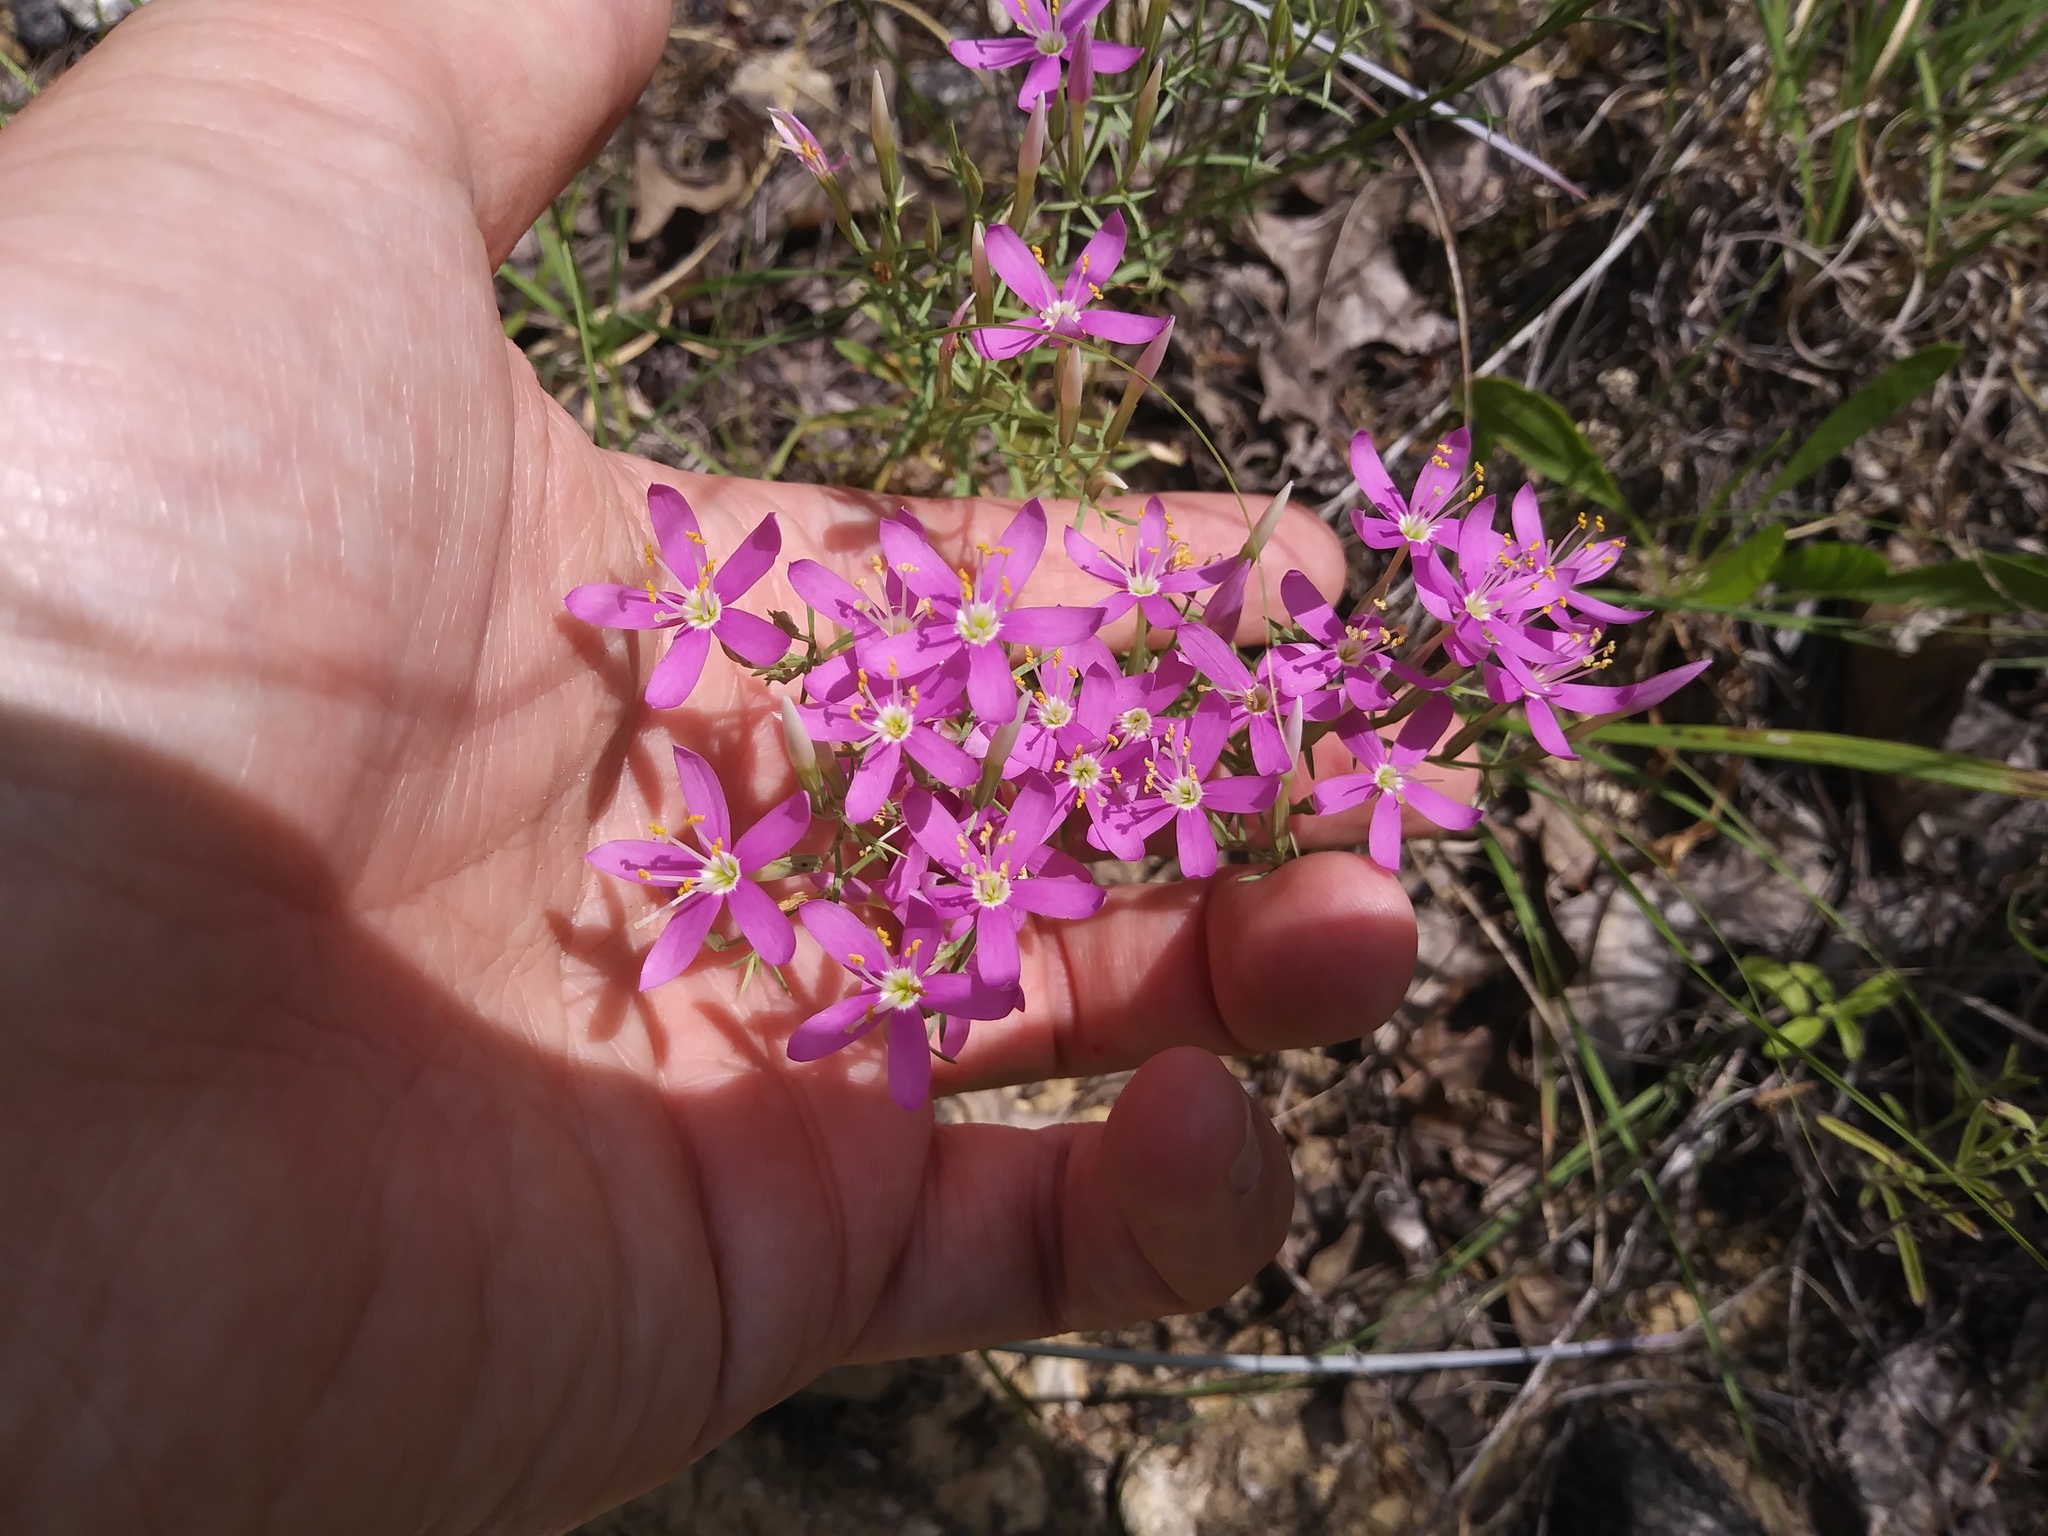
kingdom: Plantae
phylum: Tracheophyta
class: Magnoliopsida
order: Gentianales
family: Gentianaceae
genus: Zeltnera
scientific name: Zeltnera beyrichii
